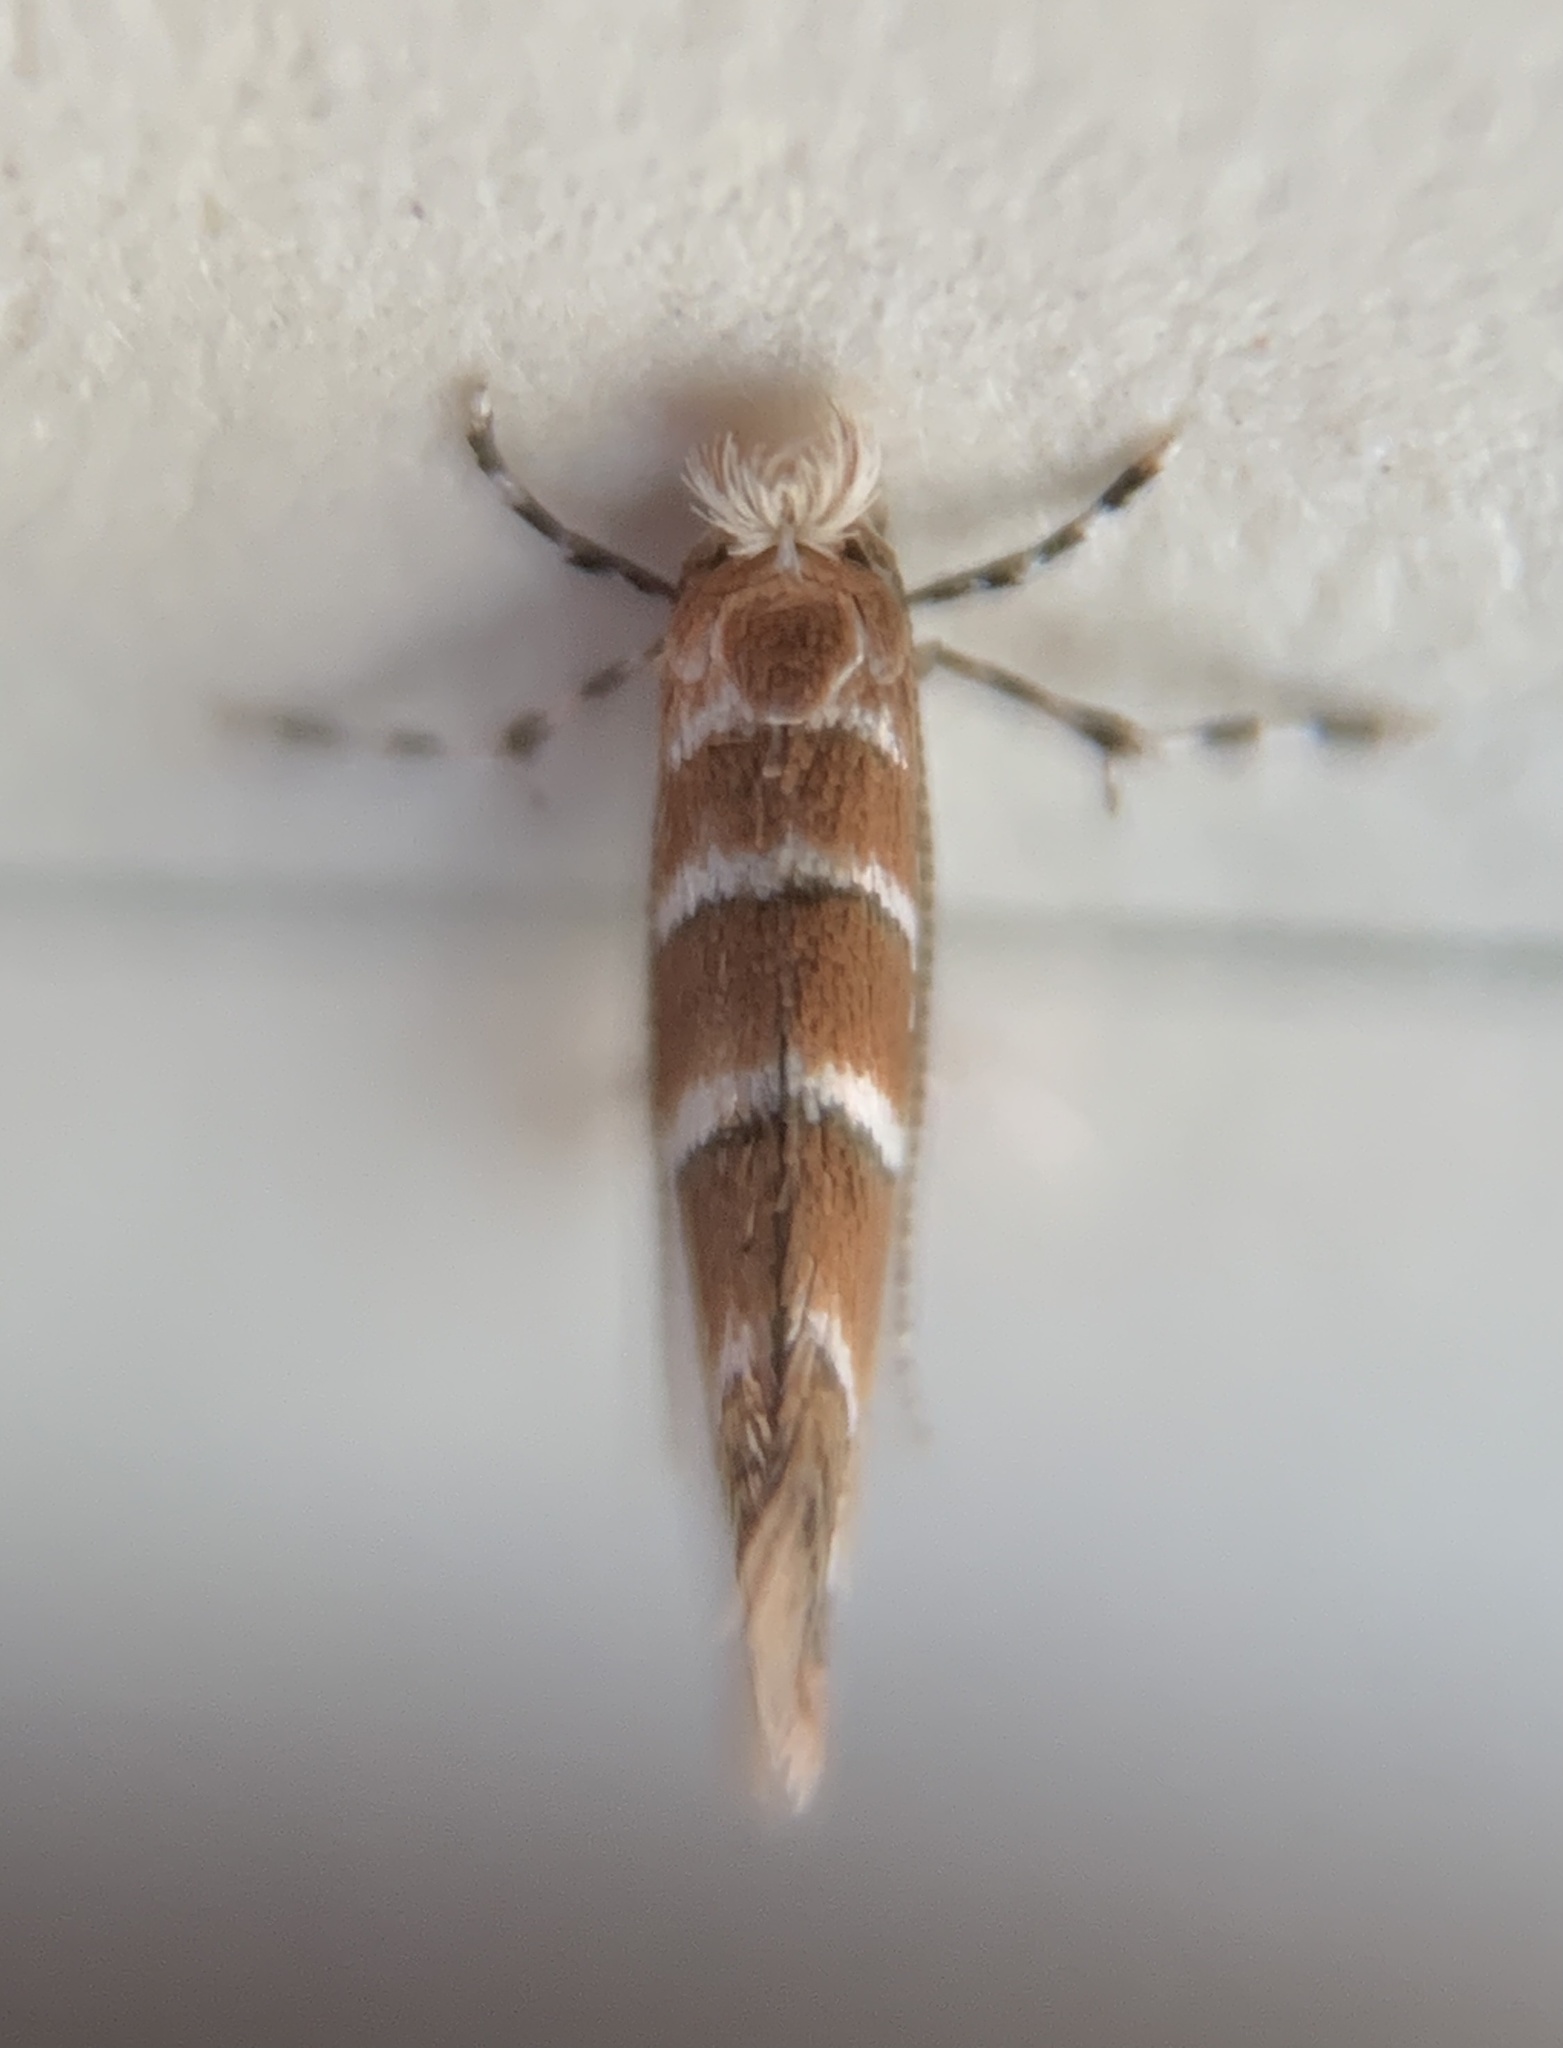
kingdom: Animalia
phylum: Arthropoda
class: Insecta
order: Lepidoptera
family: Gracillariidae
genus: Cameraria
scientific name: Cameraria ostryarella
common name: Hophornbeam blotchminer
